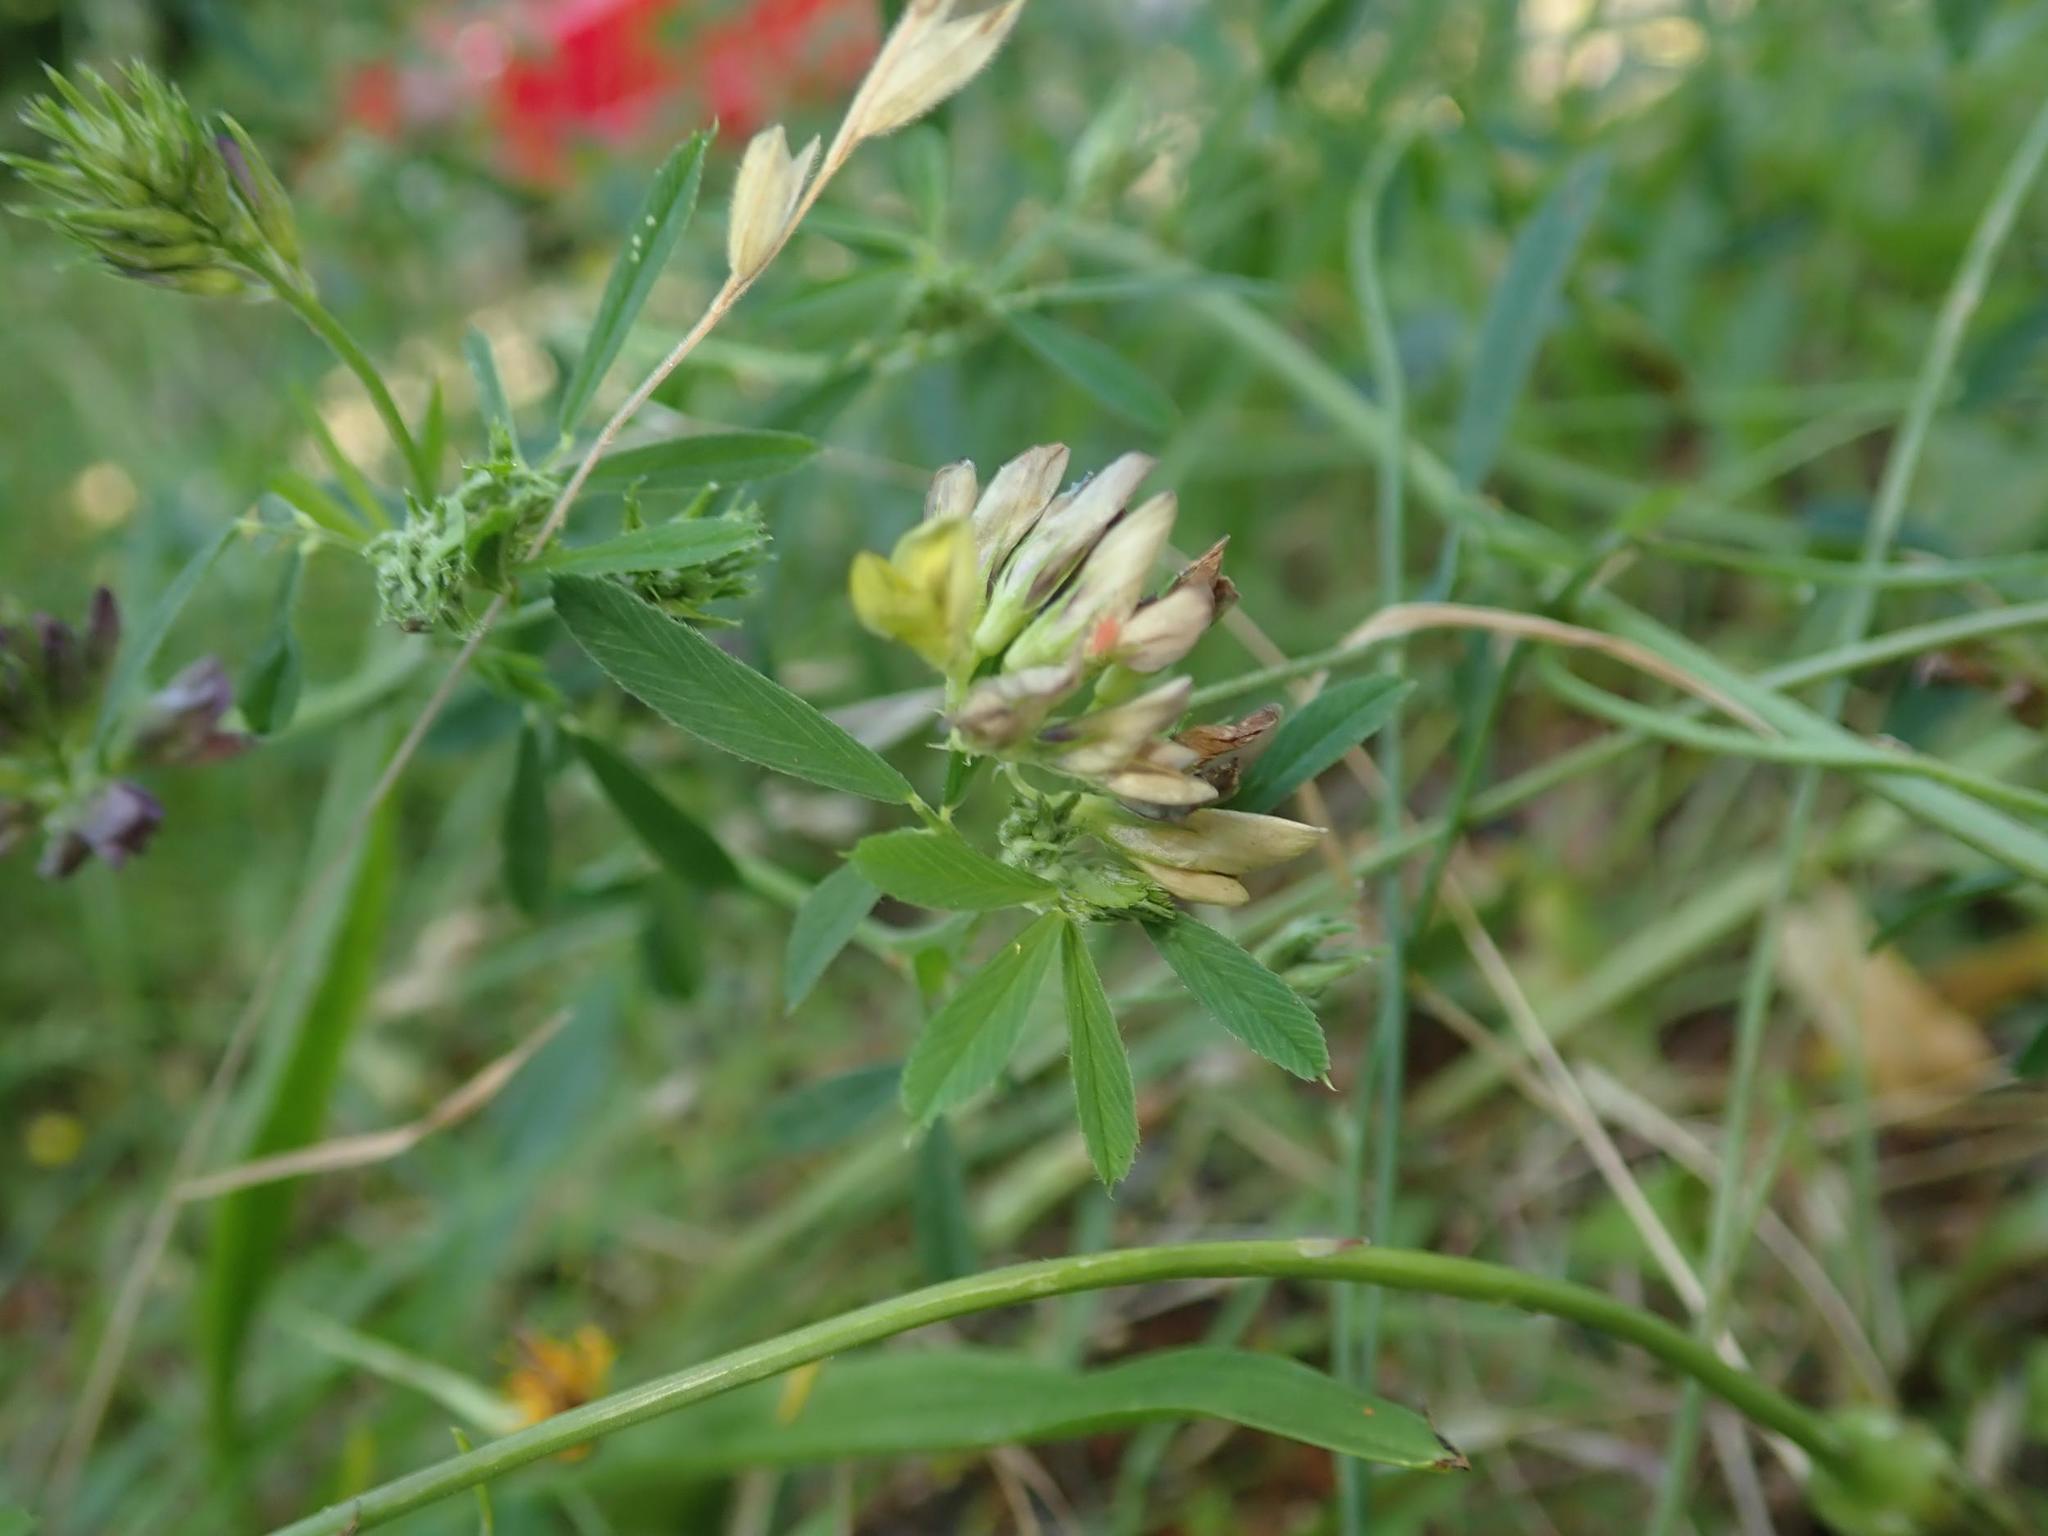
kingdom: Plantae
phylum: Tracheophyta
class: Magnoliopsida
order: Fabales
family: Fabaceae
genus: Medicago
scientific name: Medicago varia
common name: Sand lucerne
